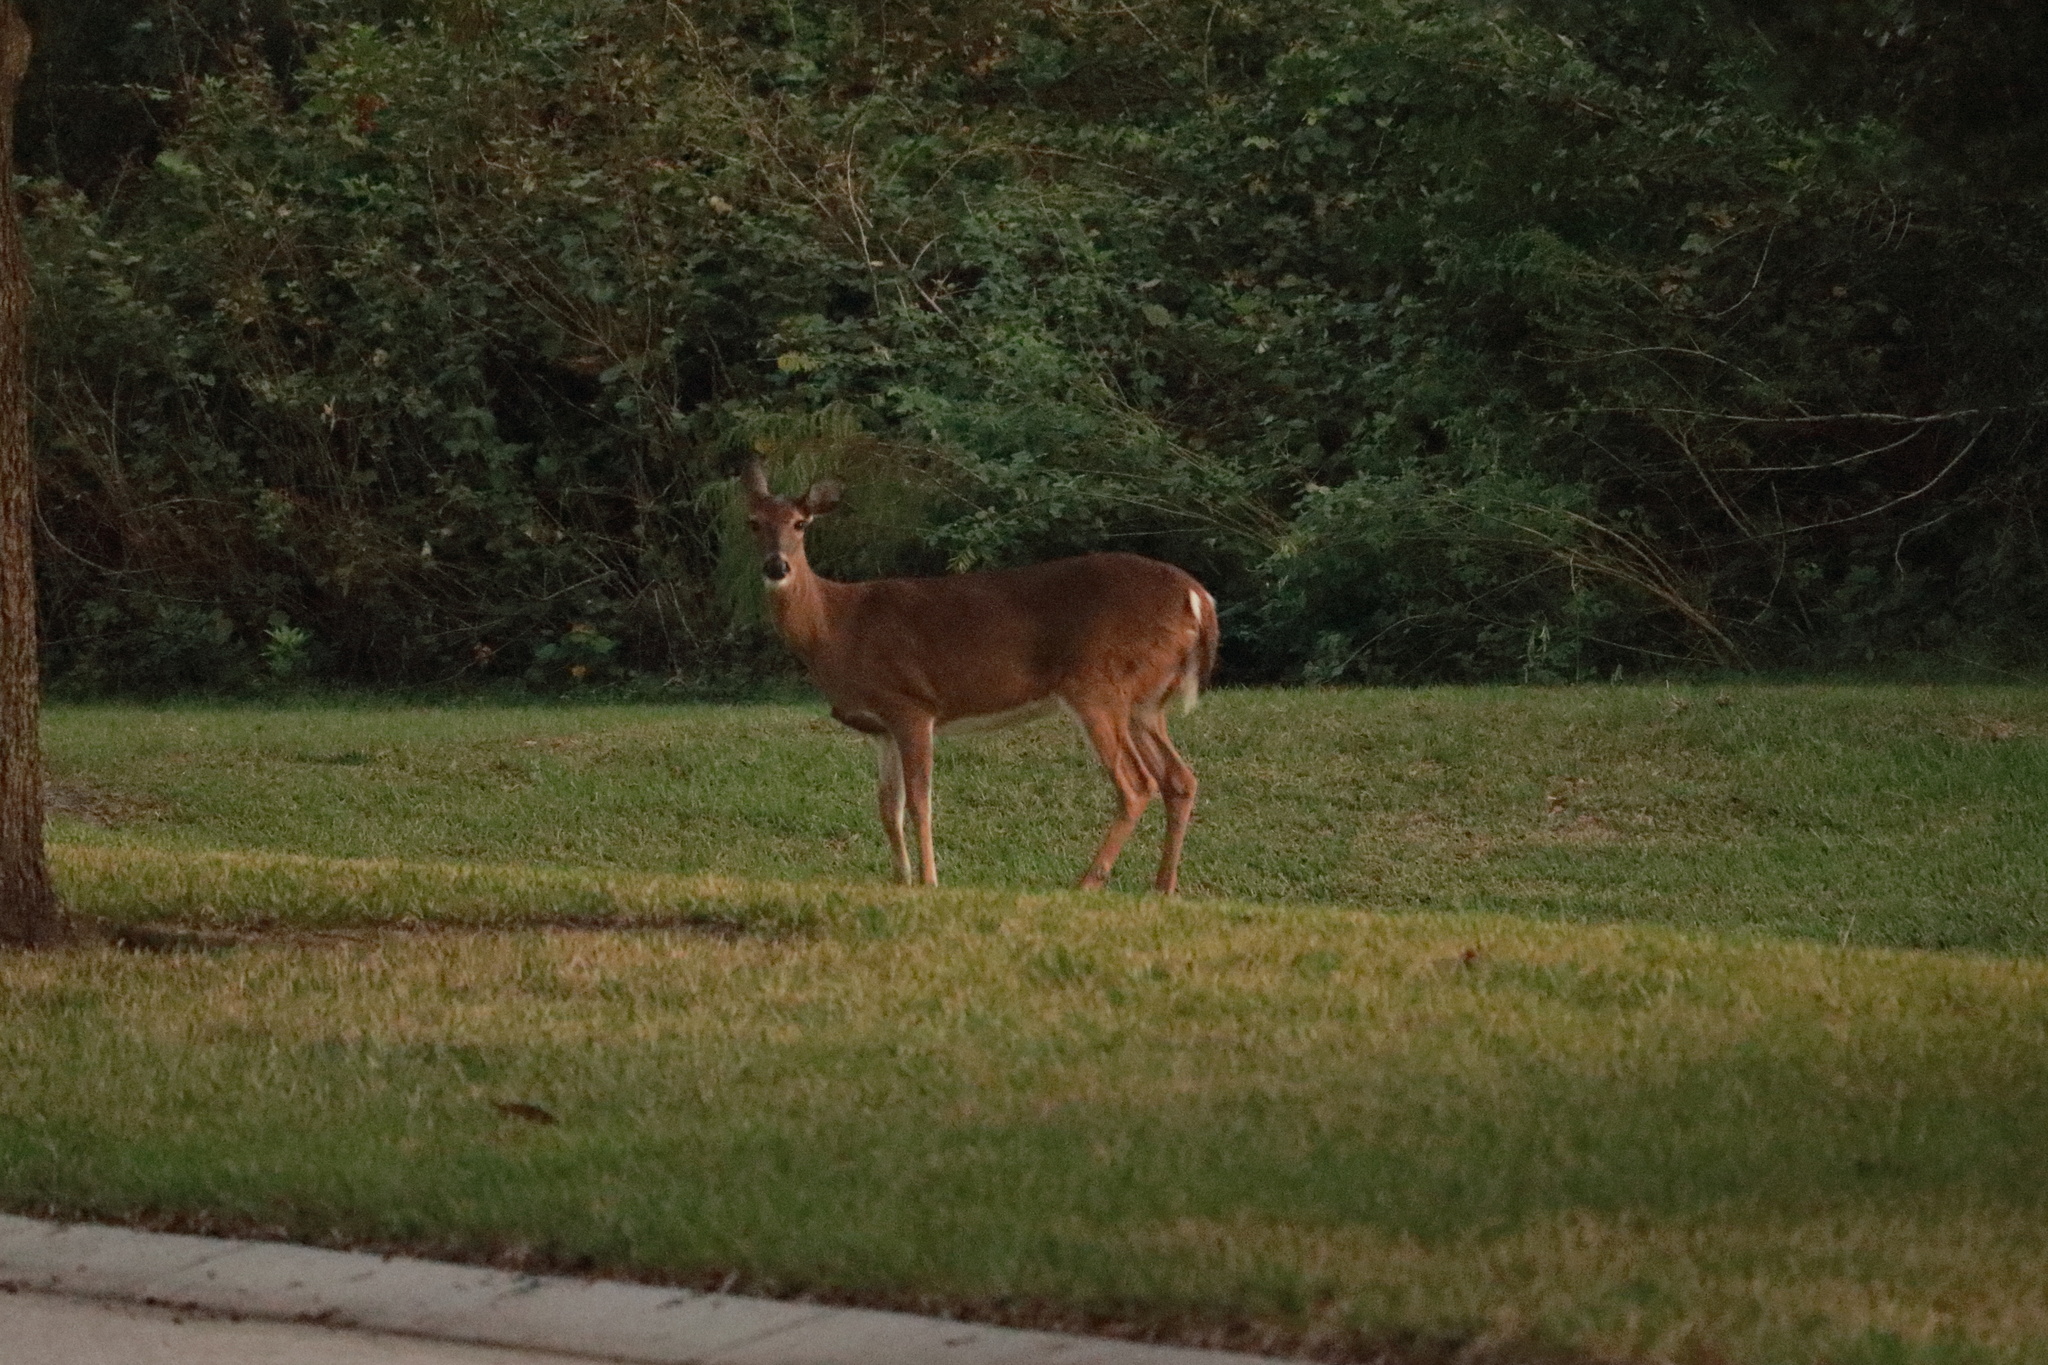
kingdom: Animalia
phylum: Chordata
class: Mammalia
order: Artiodactyla
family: Cervidae
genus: Odocoileus
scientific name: Odocoileus virginianus
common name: White-tailed deer
